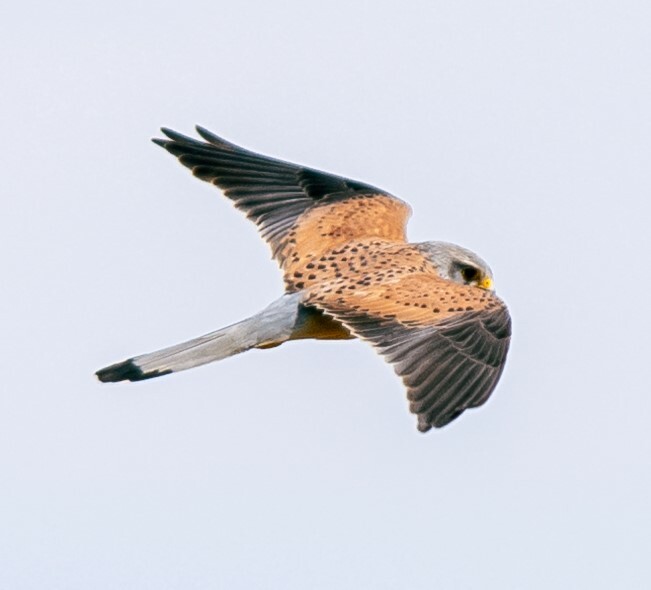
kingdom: Animalia
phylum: Chordata
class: Aves
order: Falconiformes
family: Falconidae
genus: Falco
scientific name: Falco tinnunculus
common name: Common kestrel
